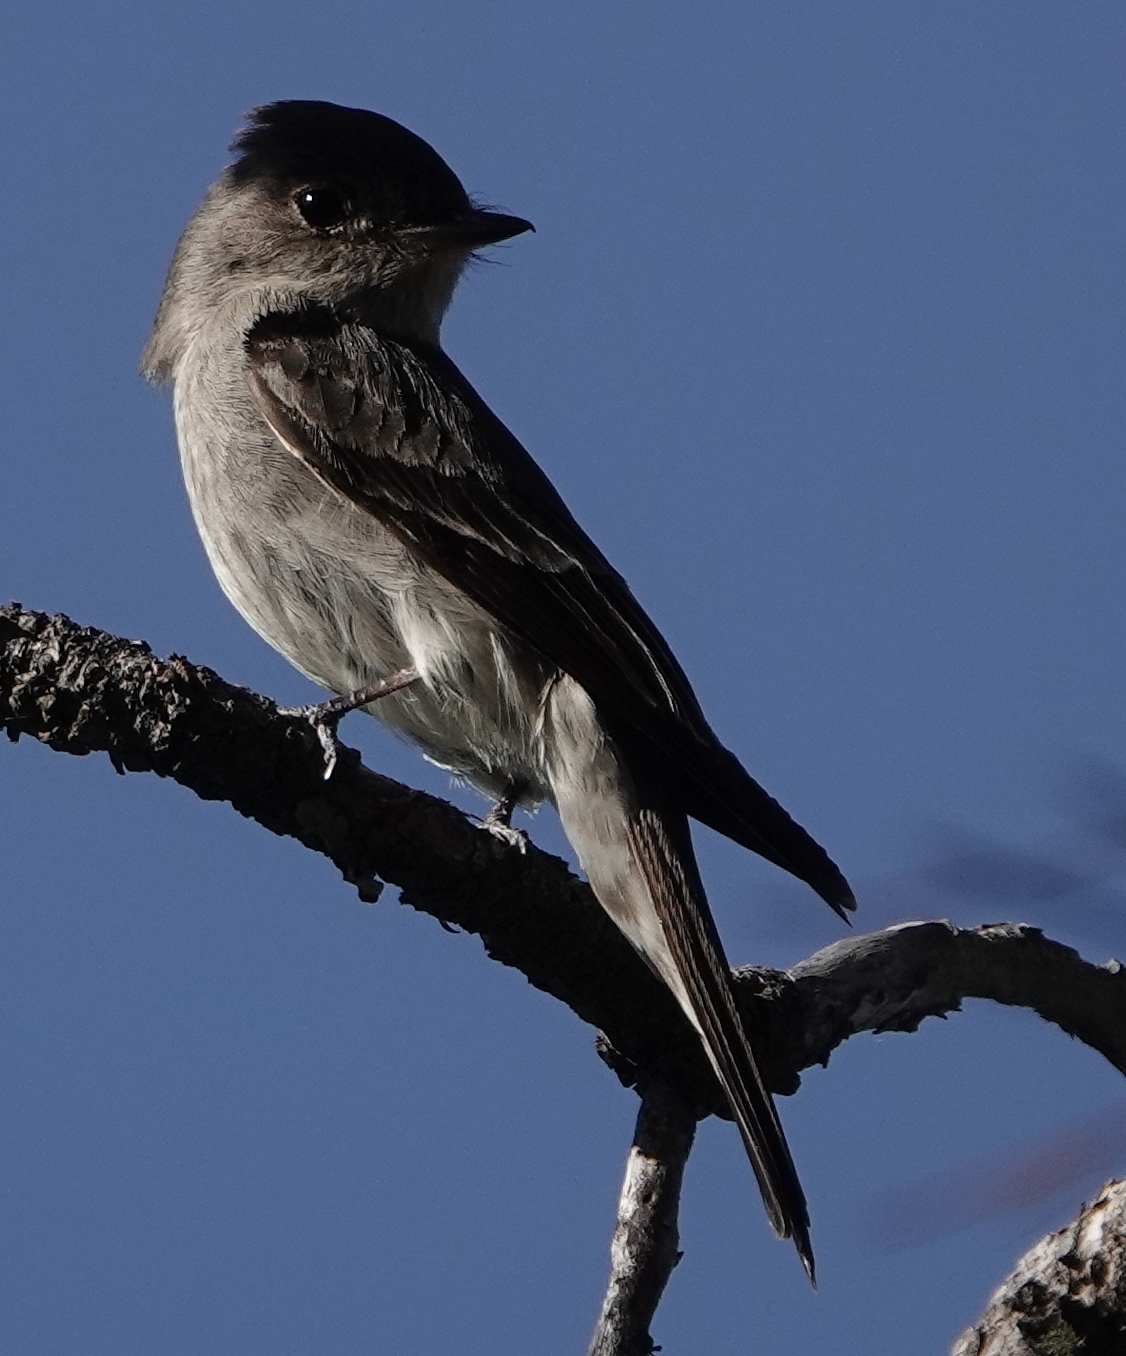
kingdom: Animalia
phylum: Chordata
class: Aves
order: Passeriformes
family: Tyrannidae
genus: Contopus
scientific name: Contopus sordidulus
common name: Western wood-pewee
